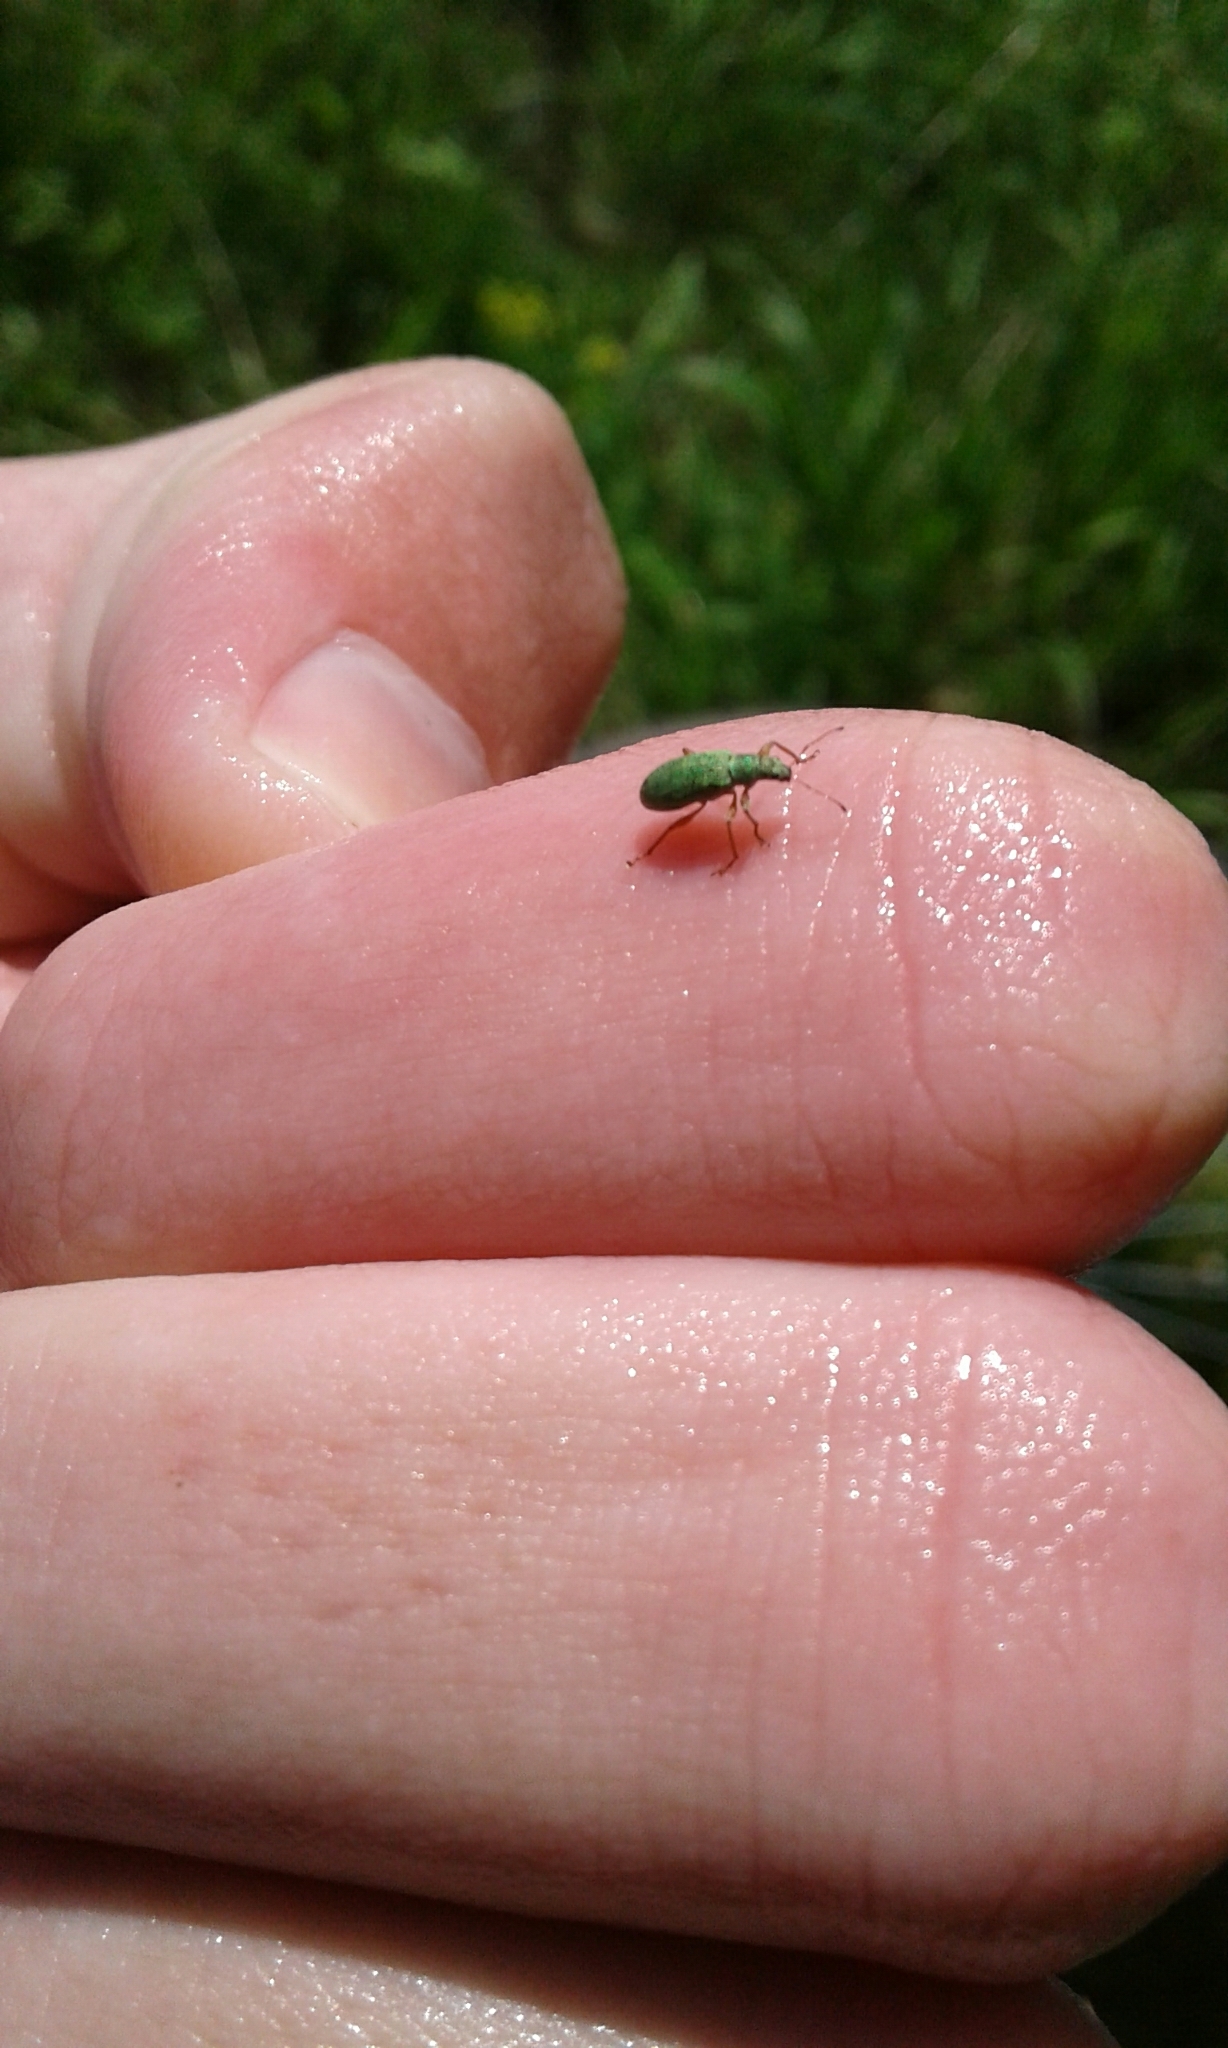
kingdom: Animalia
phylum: Arthropoda
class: Insecta
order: Coleoptera
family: Curculionidae
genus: Polydrusus
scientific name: Polydrusus impressifrons
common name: Weevil
